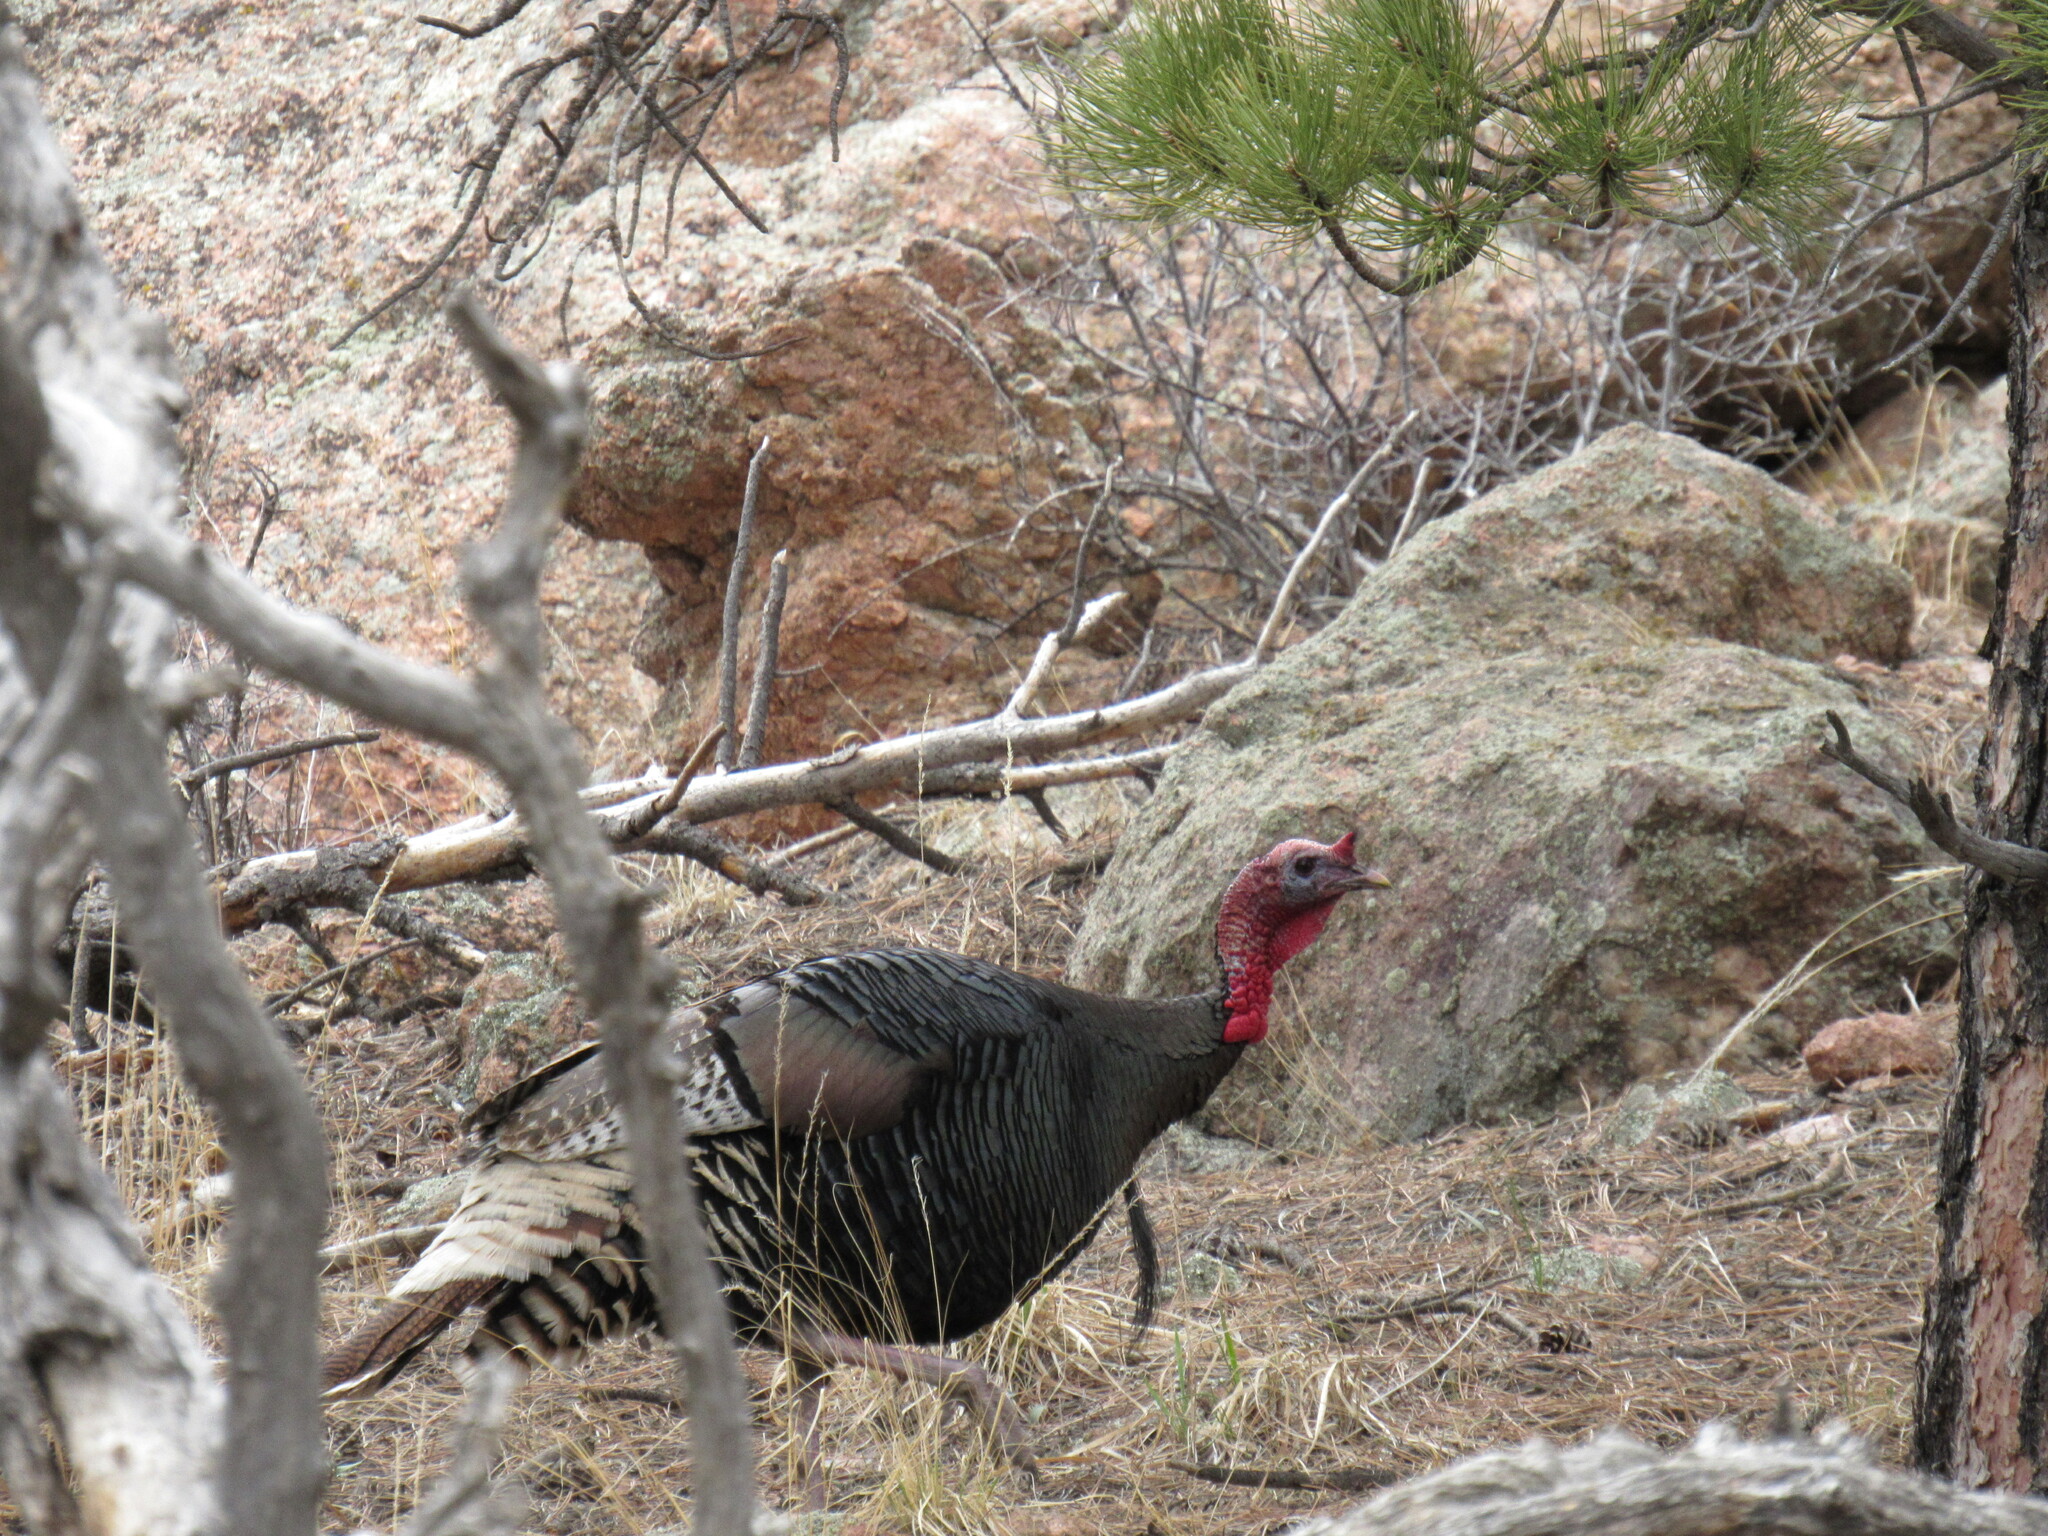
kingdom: Animalia
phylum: Chordata
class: Aves
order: Galliformes
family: Phasianidae
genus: Meleagris
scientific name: Meleagris gallopavo
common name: Wild turkey
